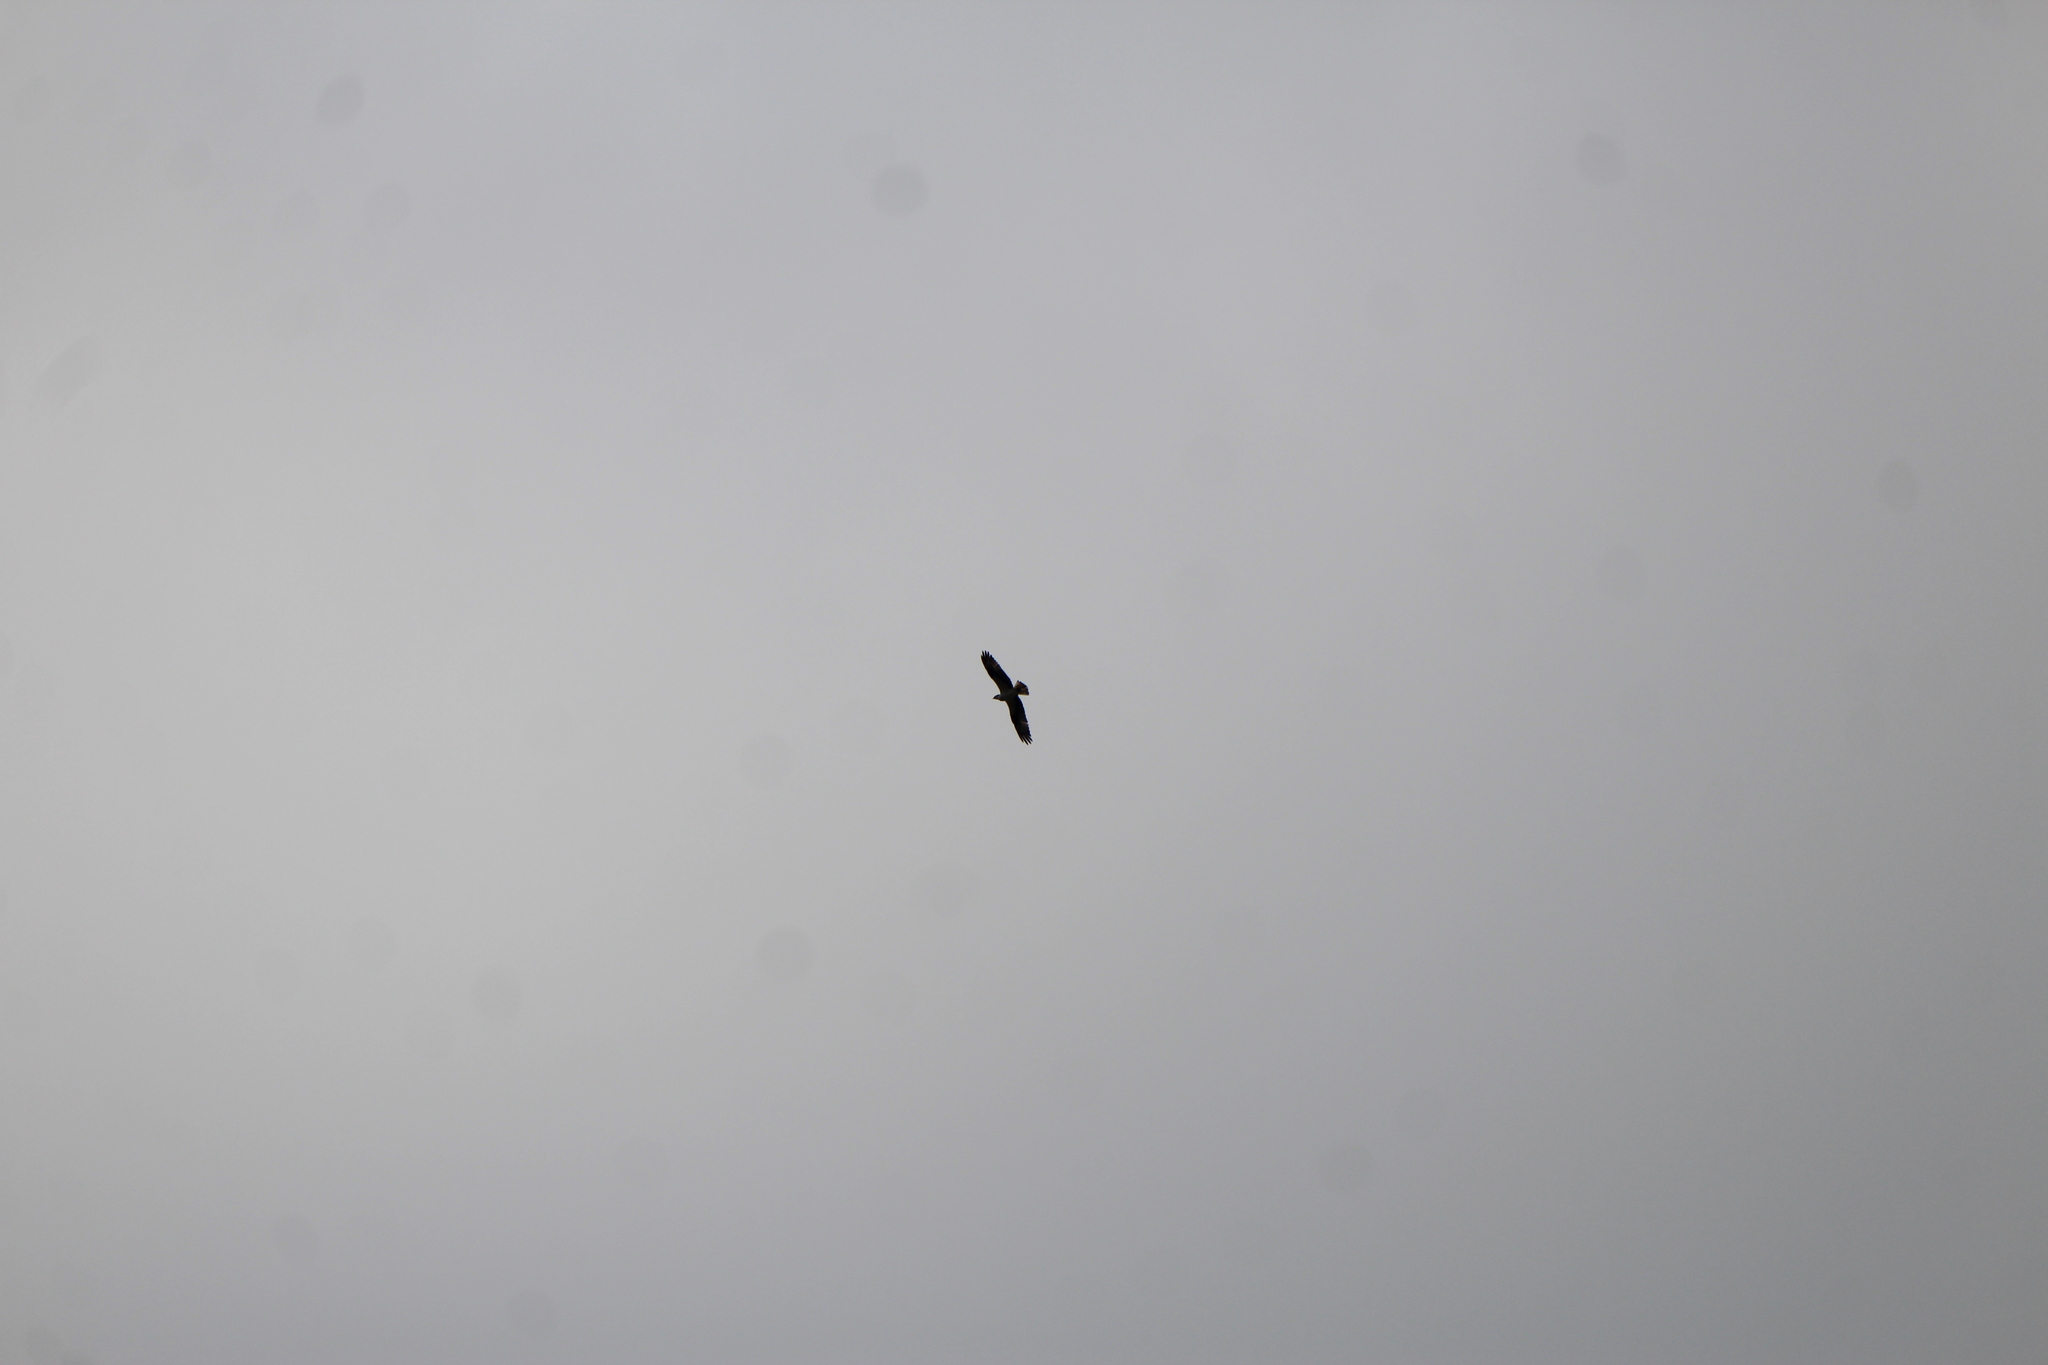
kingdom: Animalia
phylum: Chordata
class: Aves
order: Falconiformes
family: Falconidae
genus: Caracara
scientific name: Caracara plancus
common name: Southern caracara
